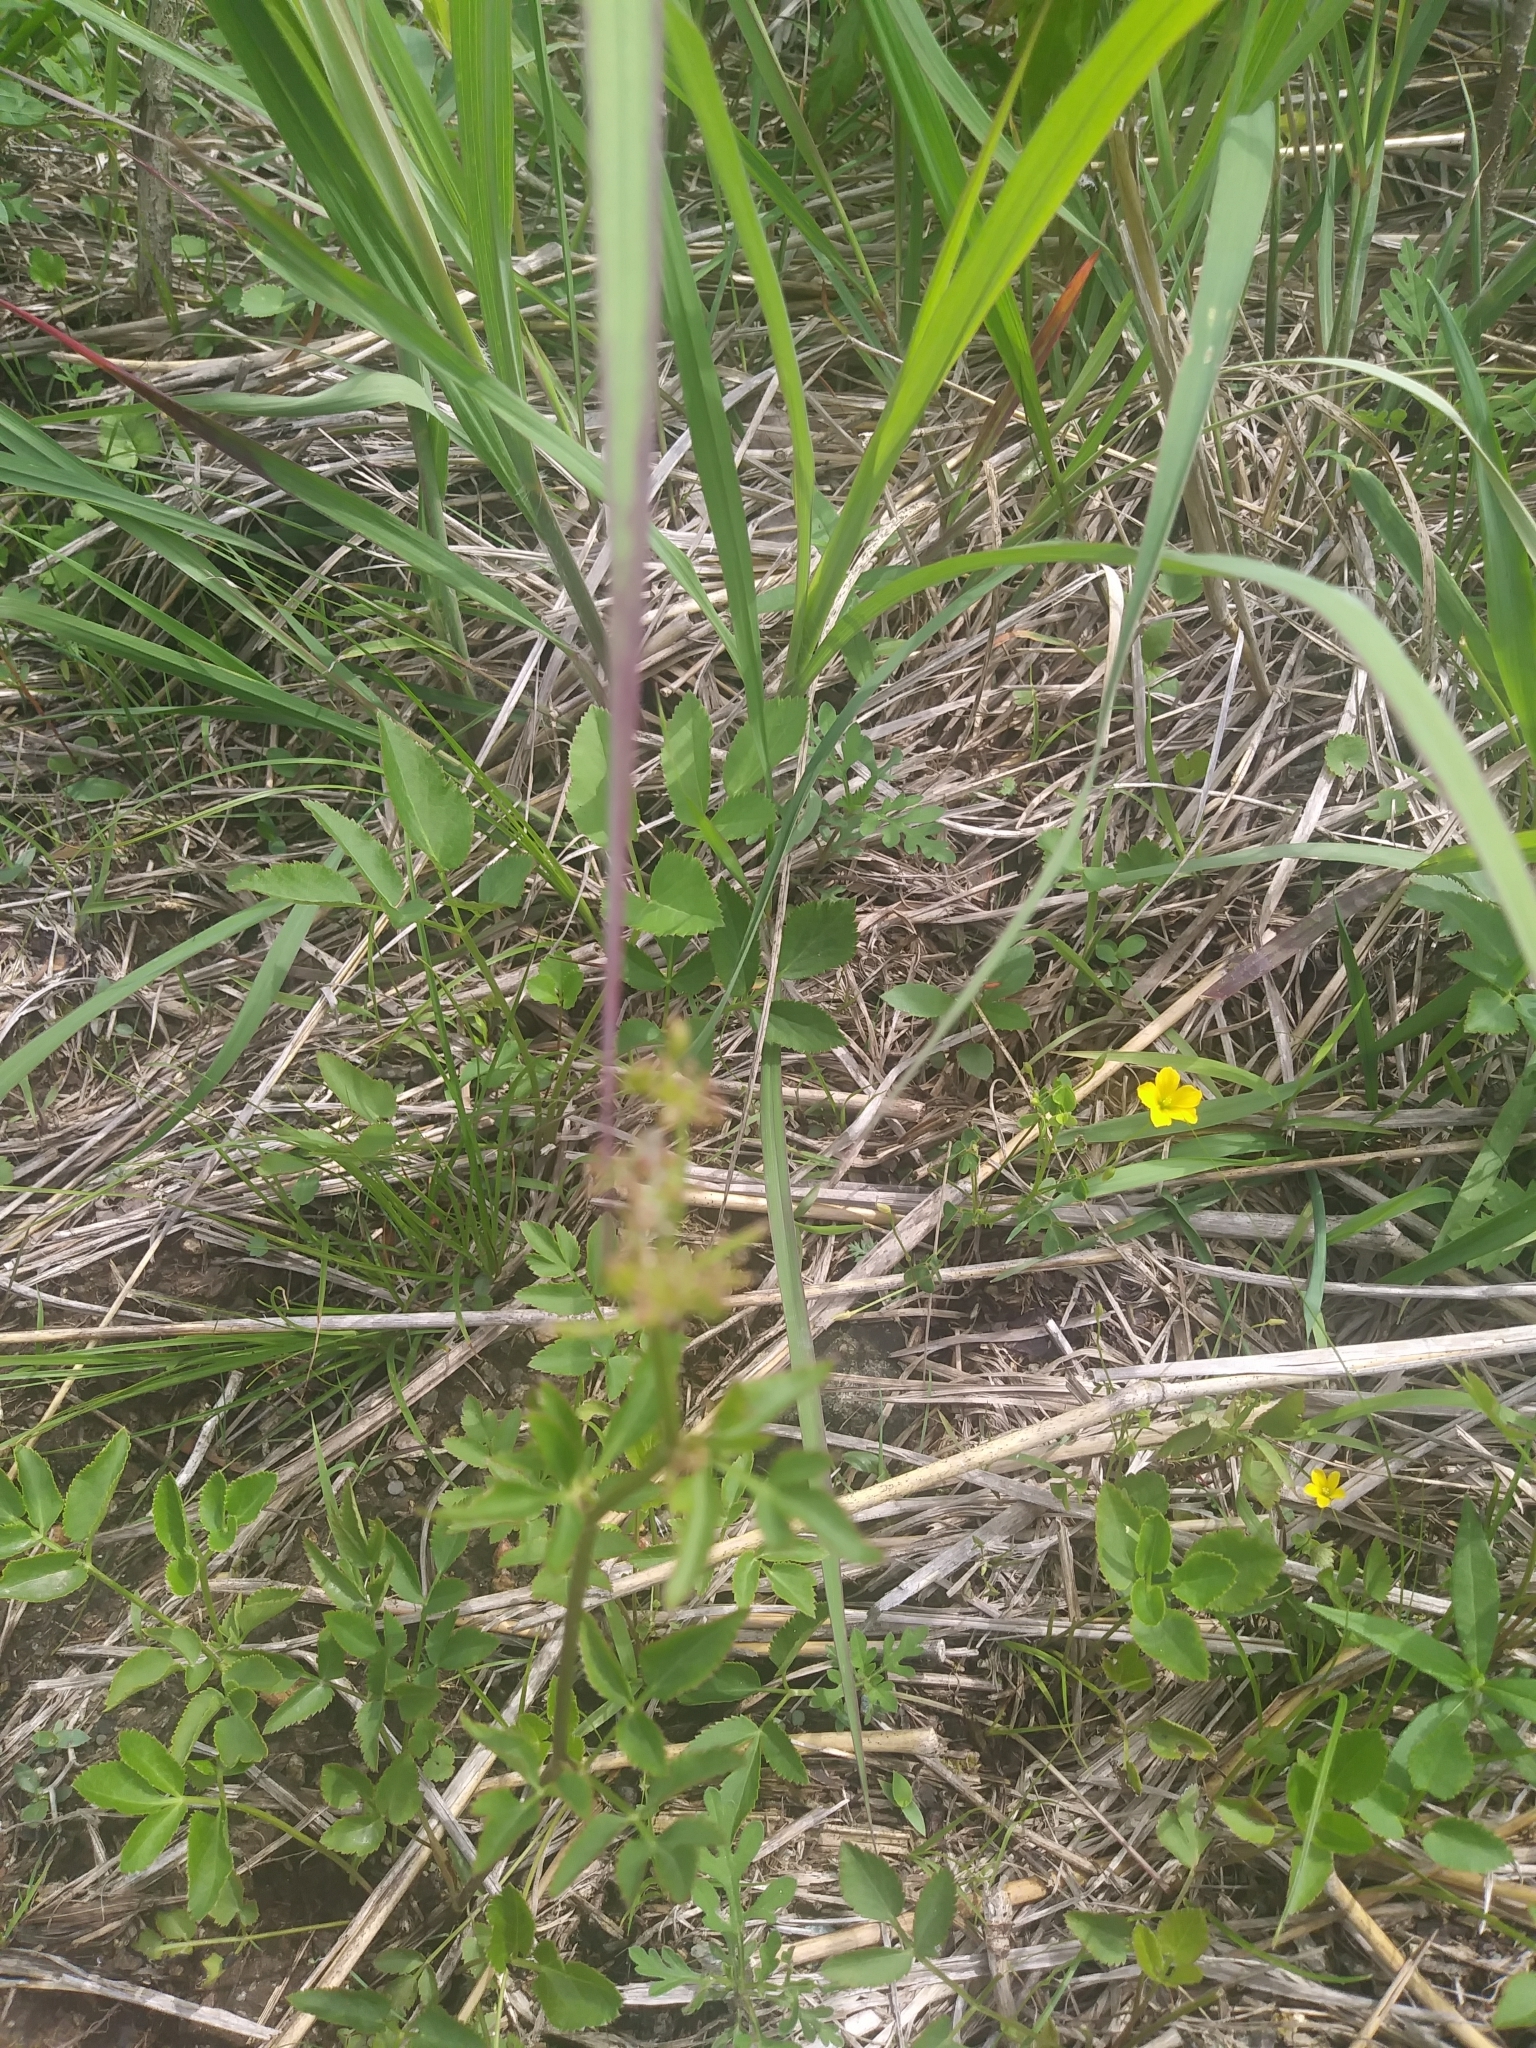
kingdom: Plantae
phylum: Tracheophyta
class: Magnoliopsida
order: Apiales
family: Apiaceae
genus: Zizia
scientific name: Zizia aurea
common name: Golden alexanders
